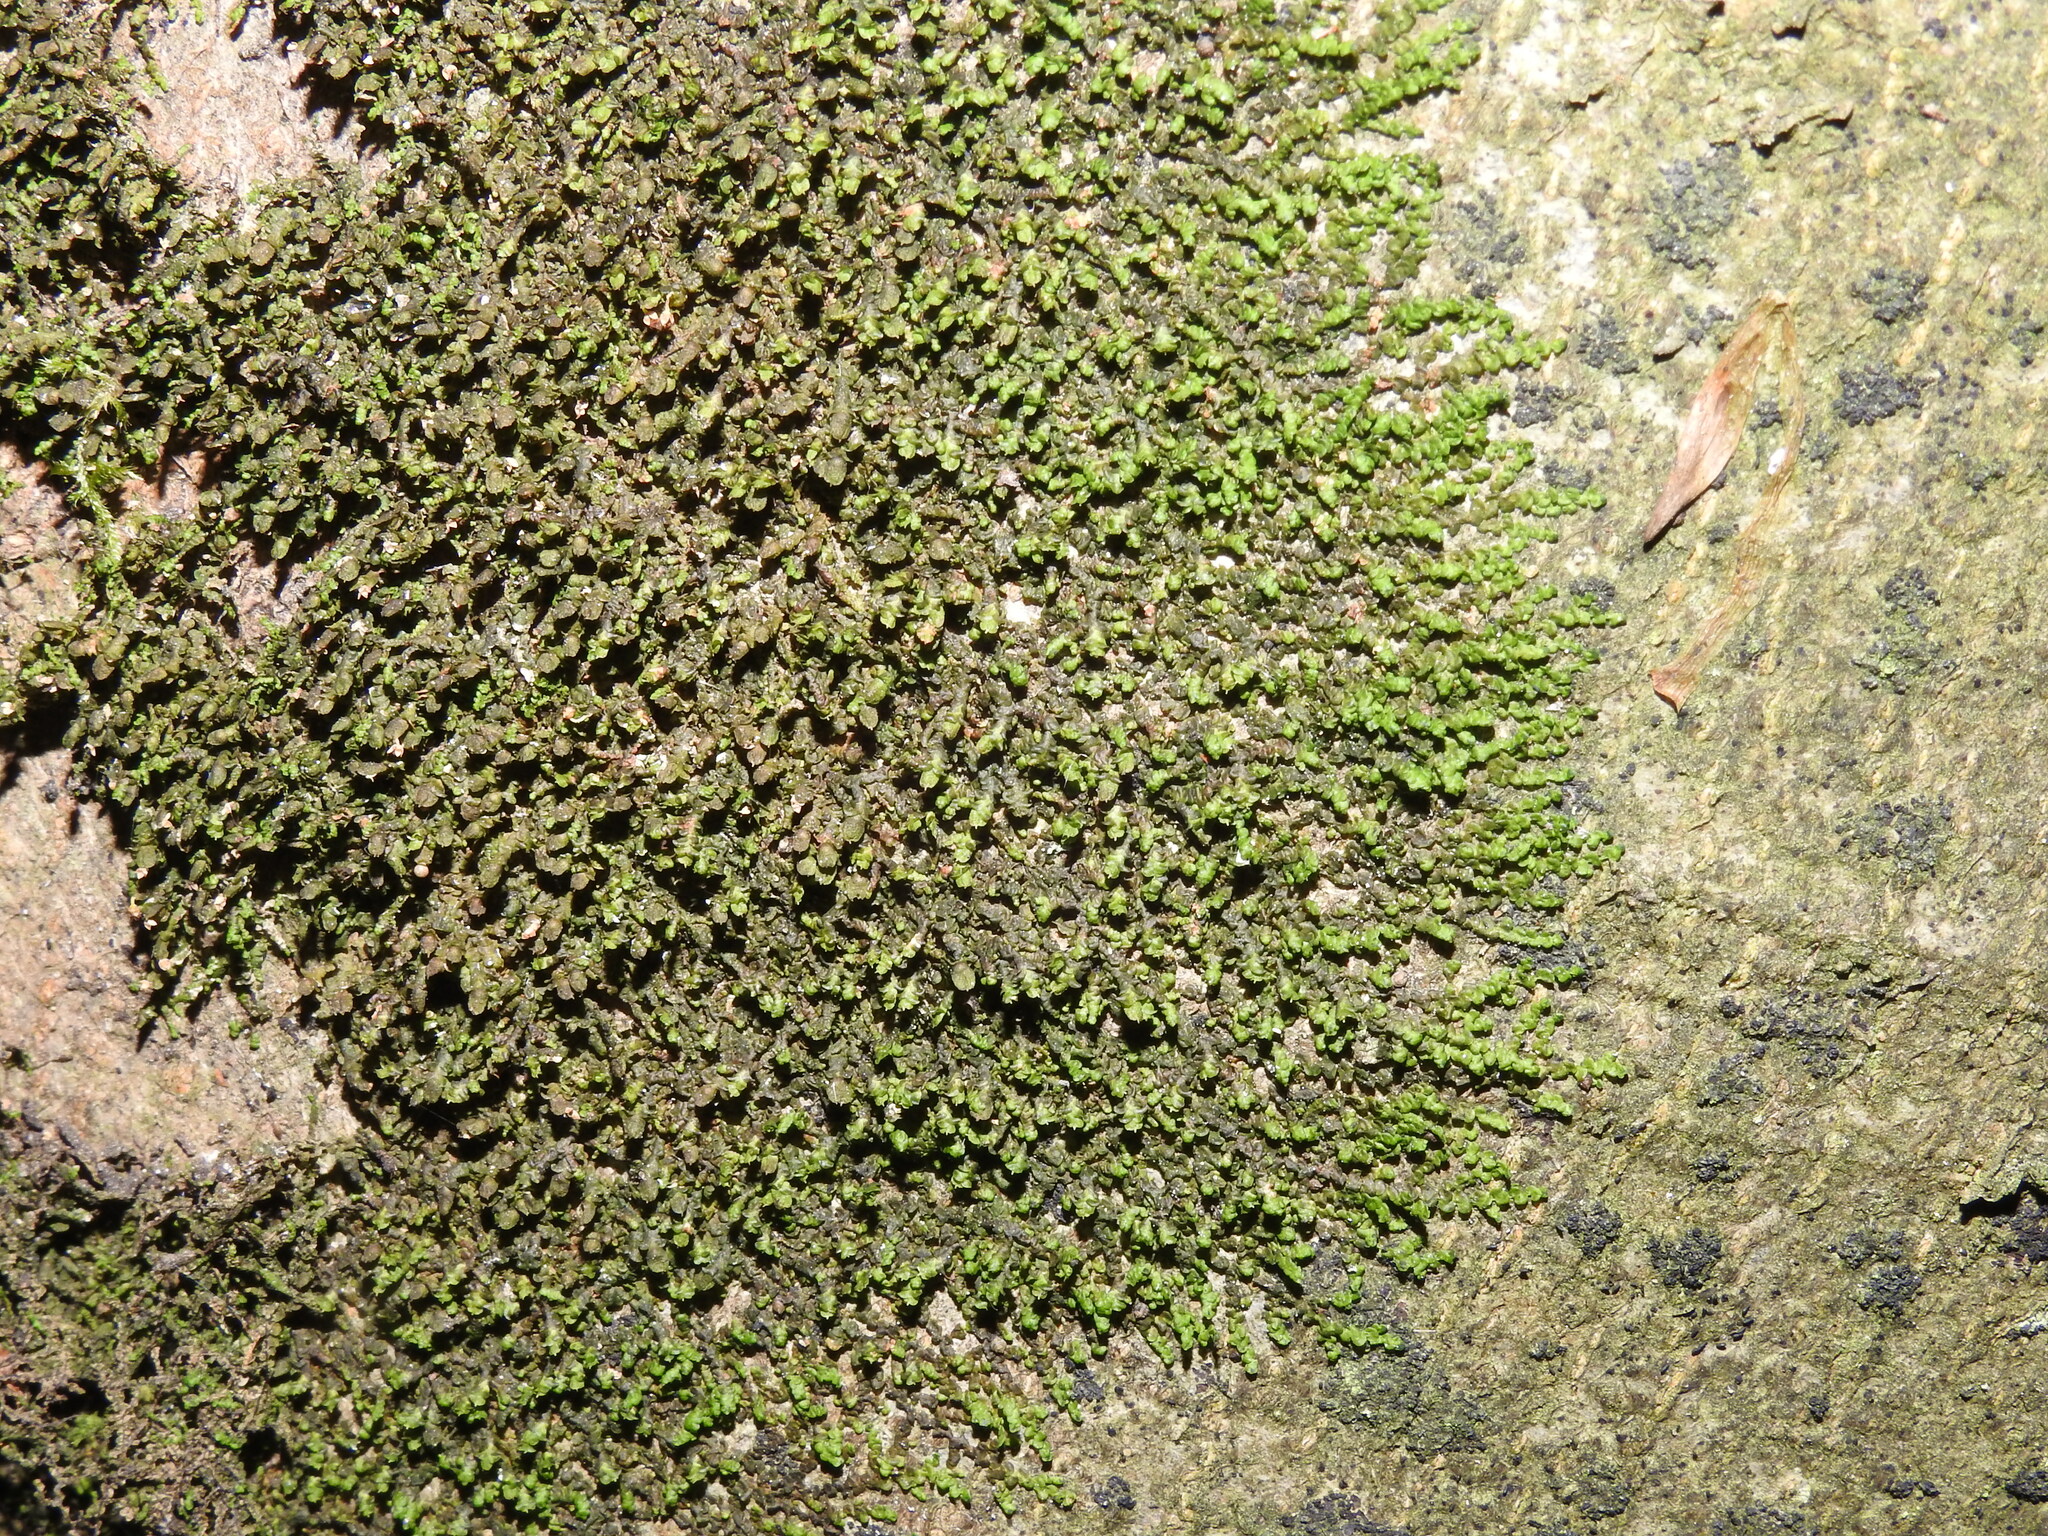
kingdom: Plantae
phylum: Marchantiophyta
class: Jungermanniopsida
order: Porellales
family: Frullaniaceae
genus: Frullania
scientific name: Frullania dilatata
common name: Dilated scalewort
